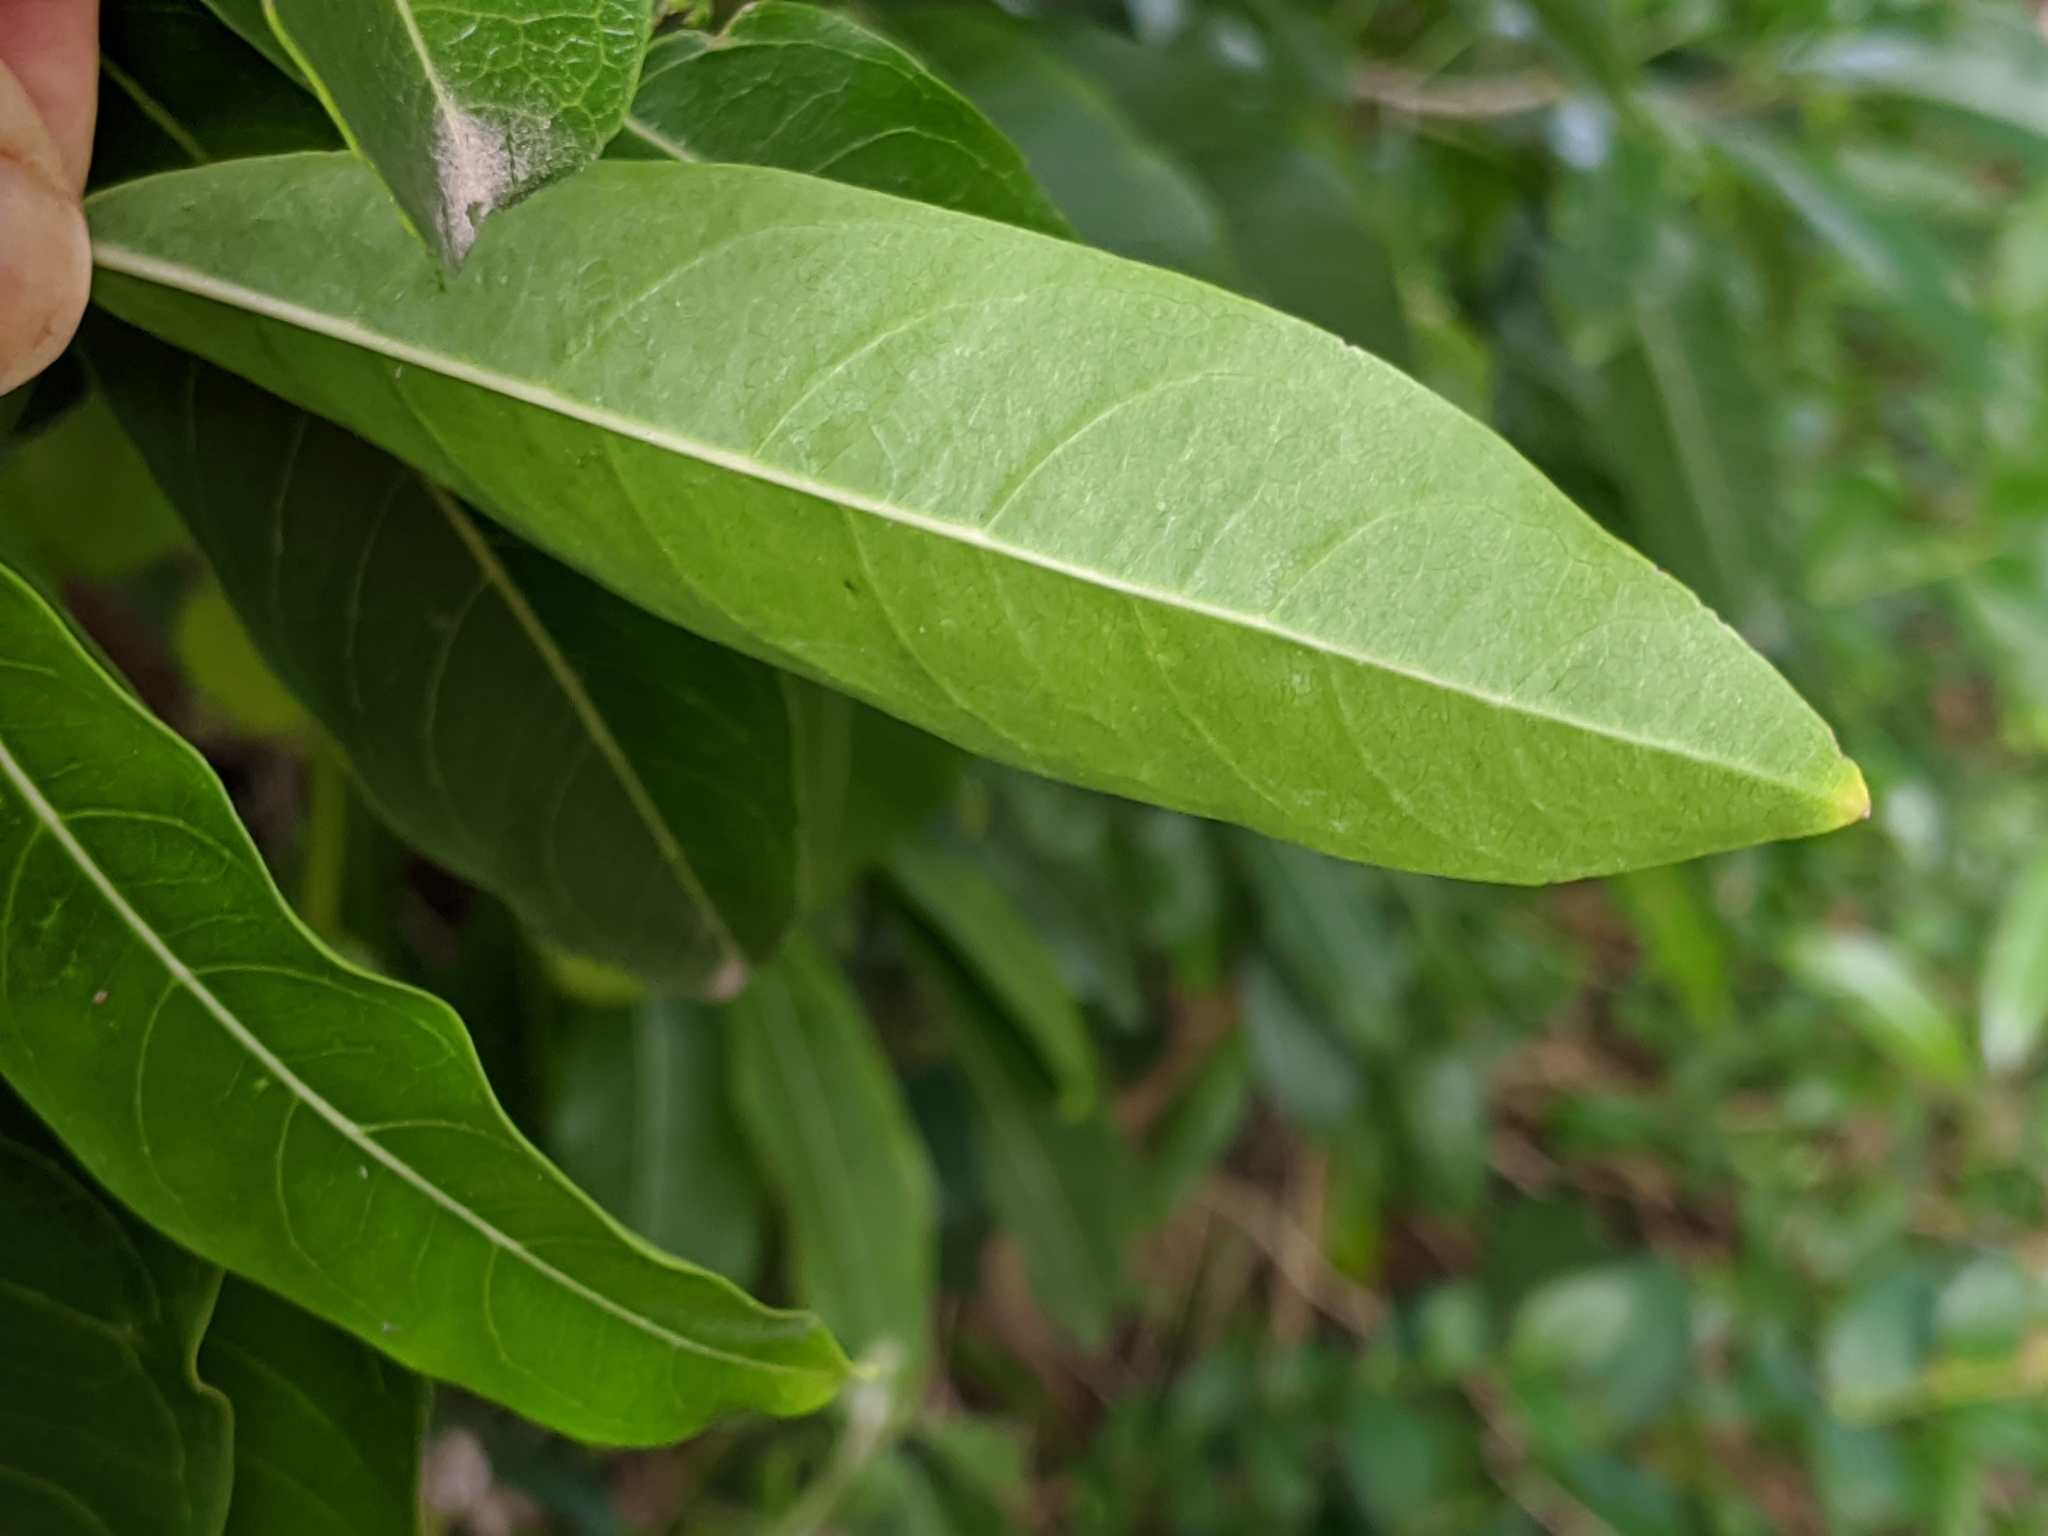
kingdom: Plantae
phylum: Tracheophyta
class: Magnoliopsida
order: Lamiales
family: Stilbaceae
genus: Nuxia
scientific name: Nuxia floribunda
